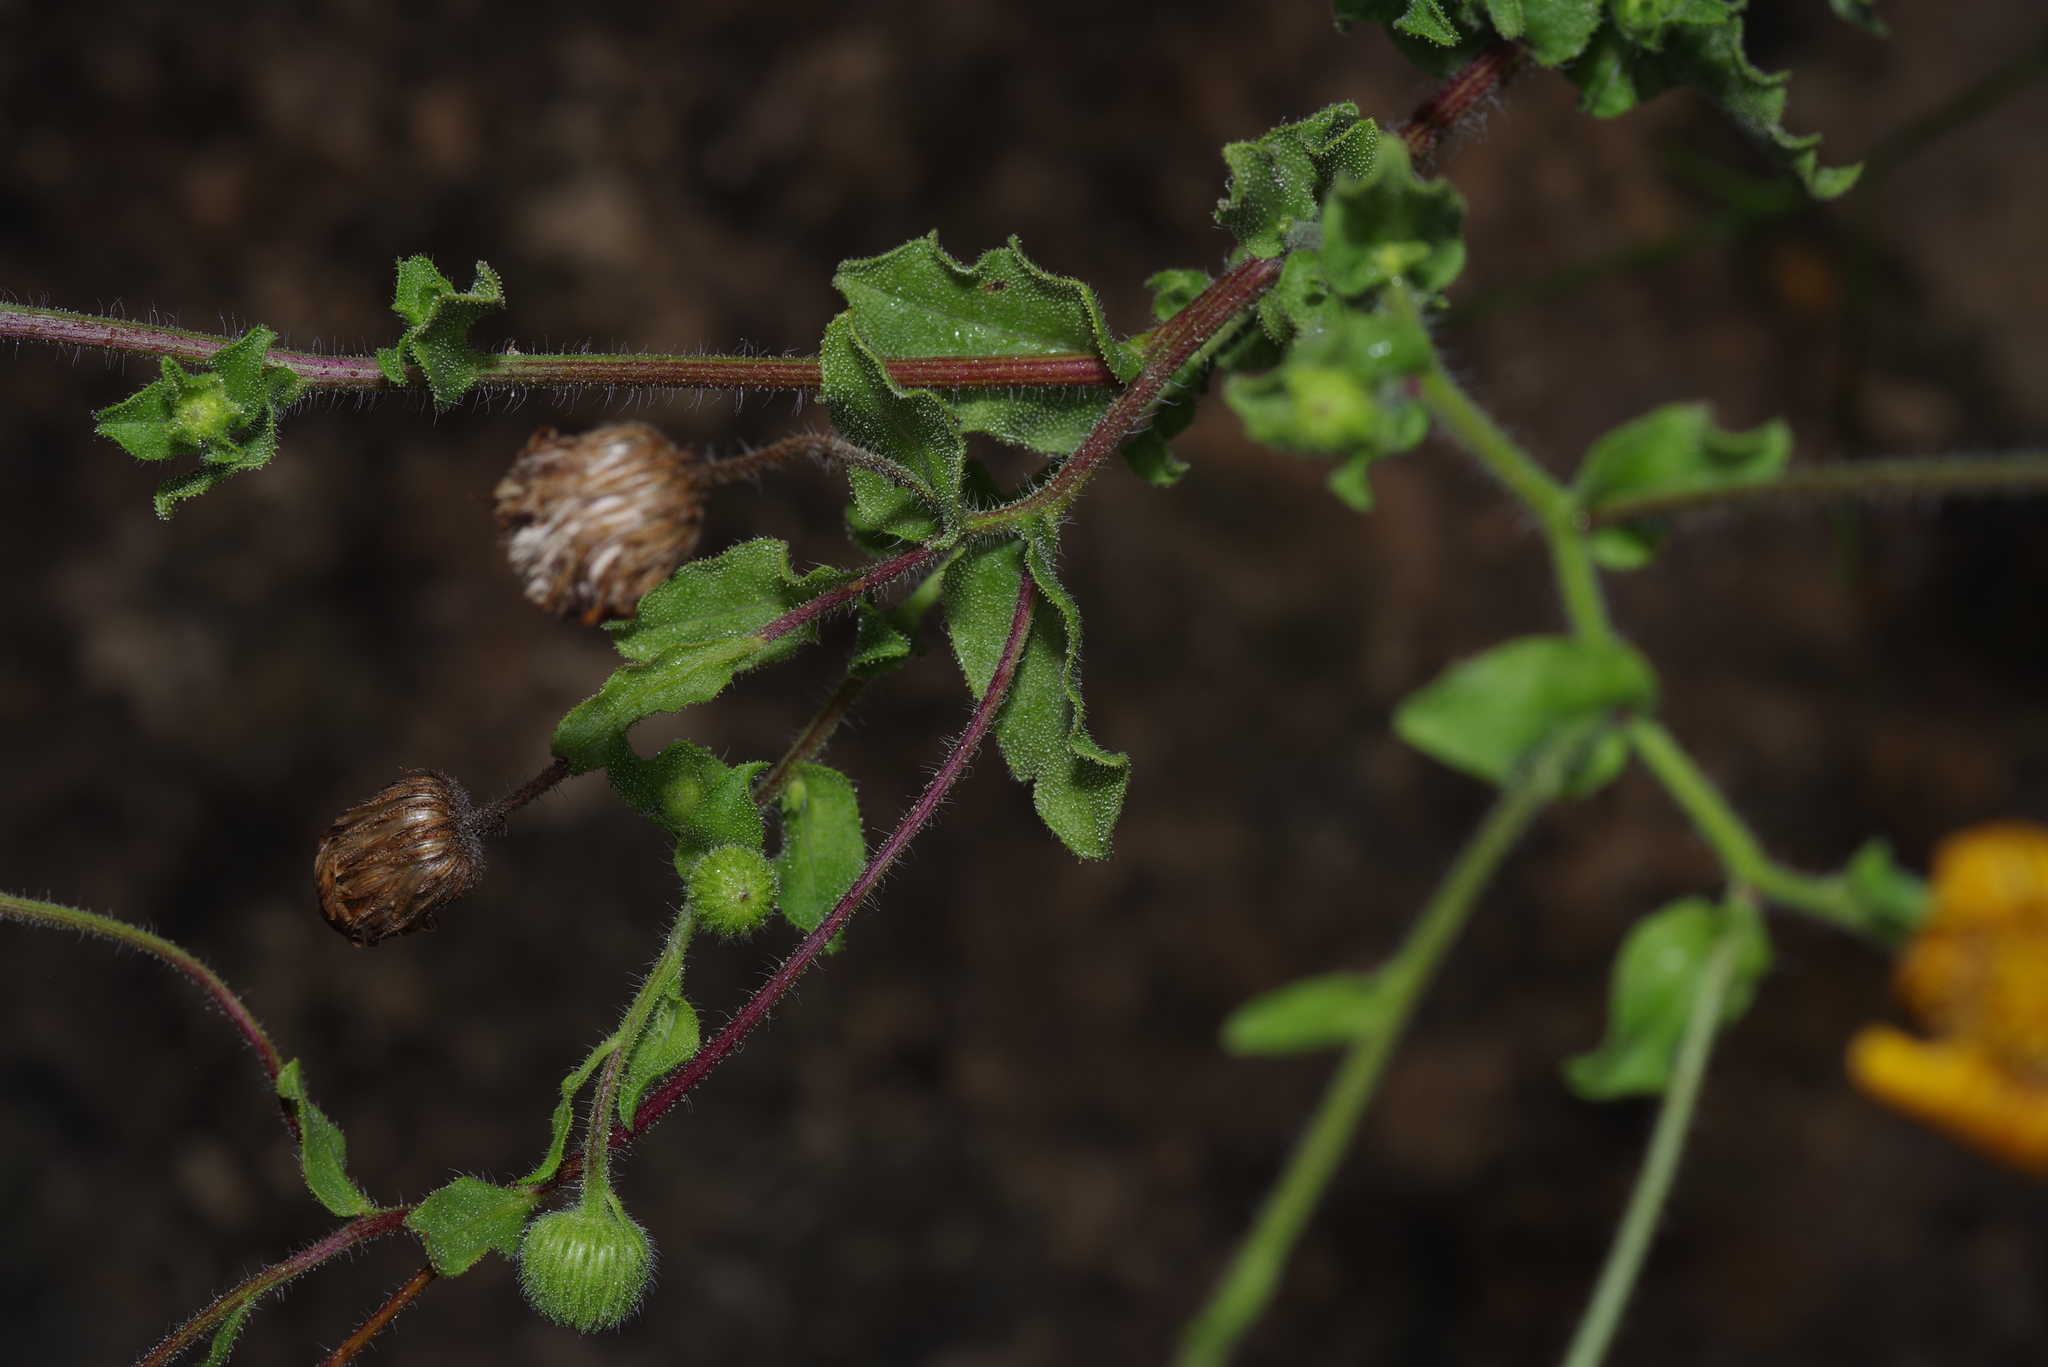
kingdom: Plantae
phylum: Tracheophyta
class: Magnoliopsida
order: Asterales
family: Asteraceae
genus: Heterotheca
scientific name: Heterotheca subaxillaris
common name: Camphorweed
